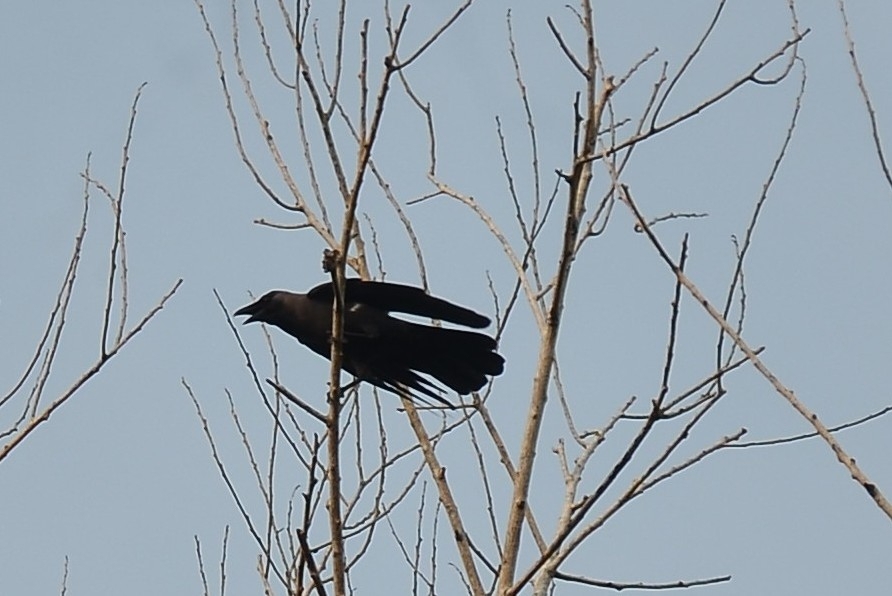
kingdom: Animalia
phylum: Chordata
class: Aves
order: Passeriformes
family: Corvidae
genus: Corvus
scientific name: Corvus splendens
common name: House crow
